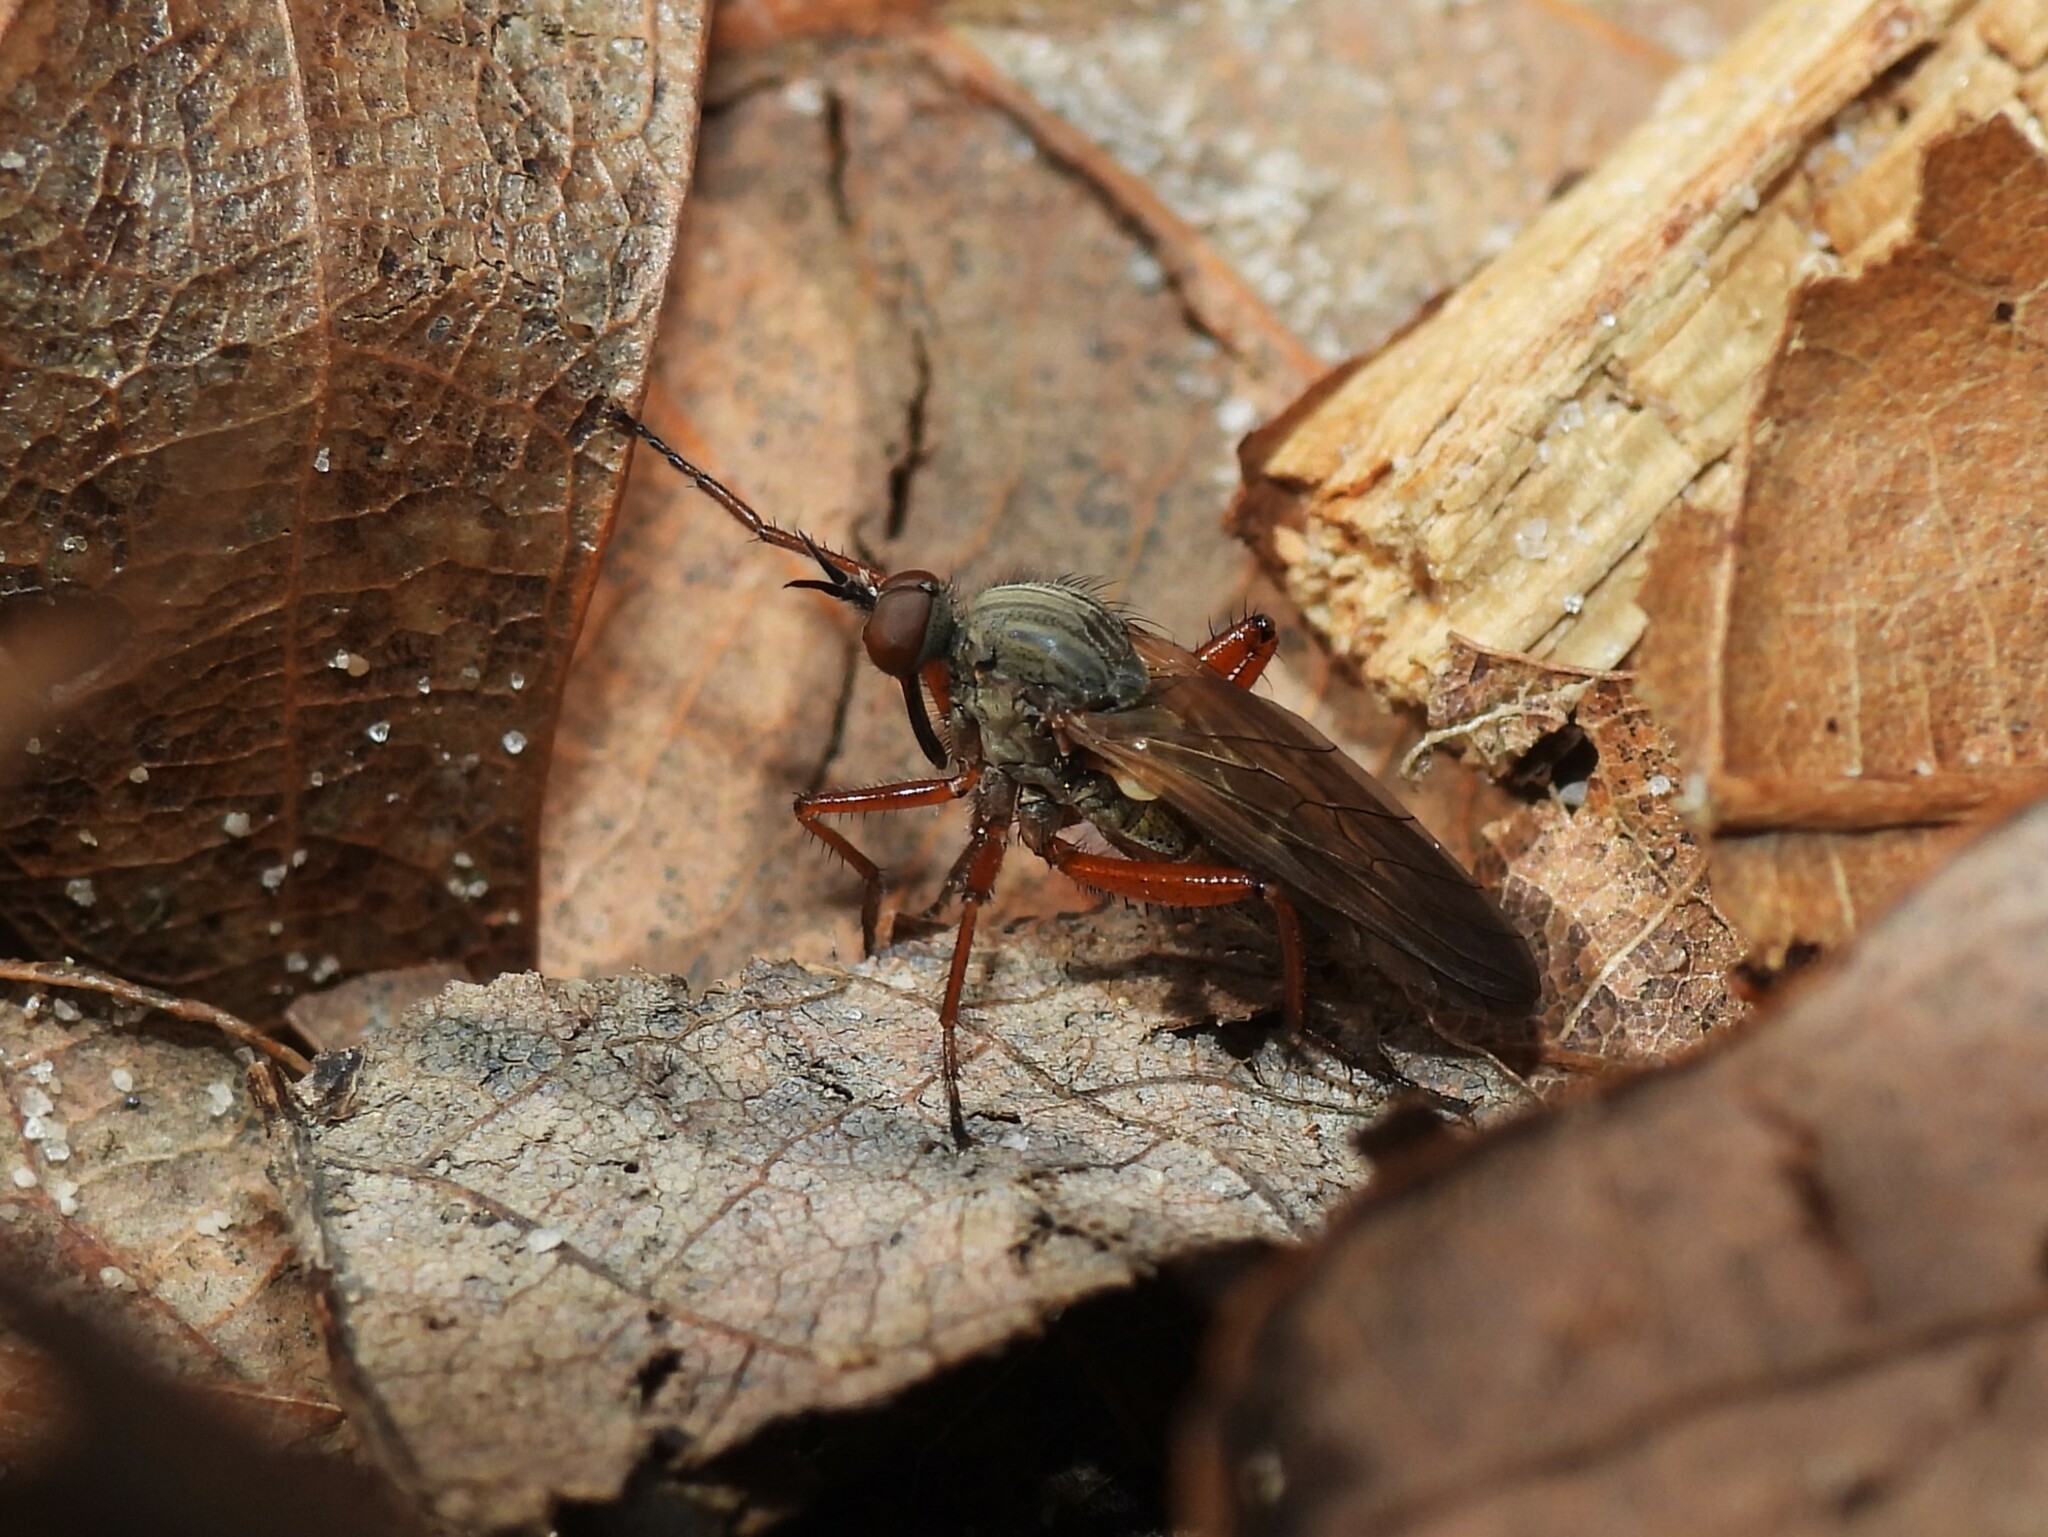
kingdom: Animalia
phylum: Arthropoda
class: Insecta
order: Diptera
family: Empididae
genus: Empis
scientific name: Empis spectabilis
